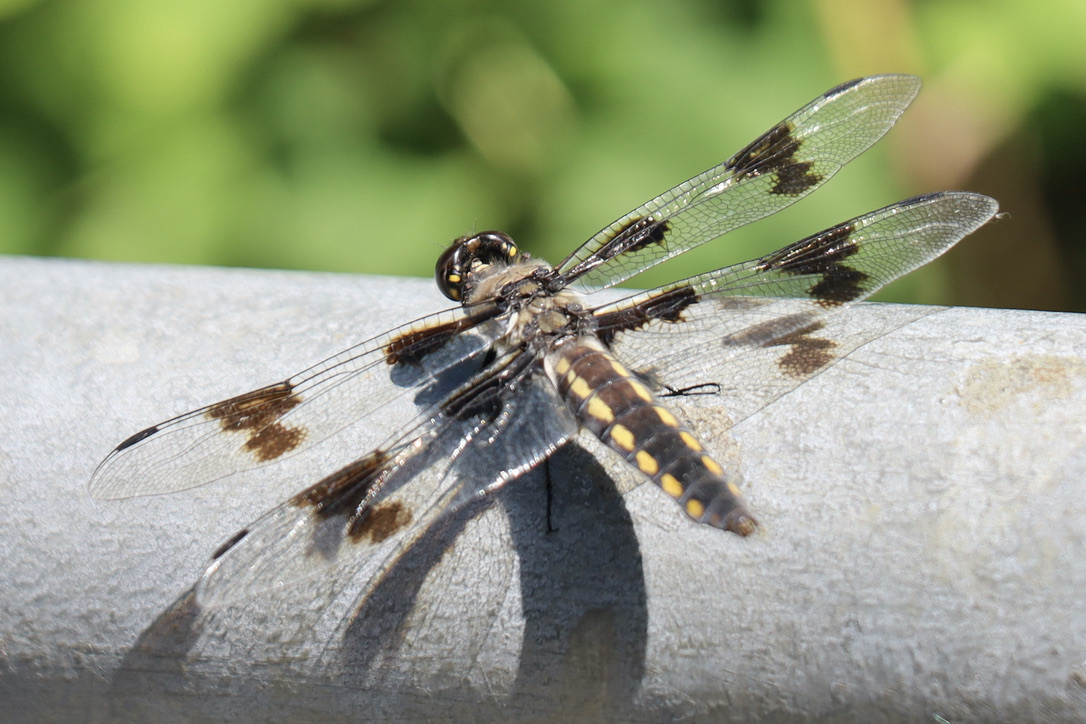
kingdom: Animalia
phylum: Arthropoda
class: Insecta
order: Odonata
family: Libellulidae
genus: Libellula
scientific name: Libellula forensis
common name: Eight-spotted skimmer
